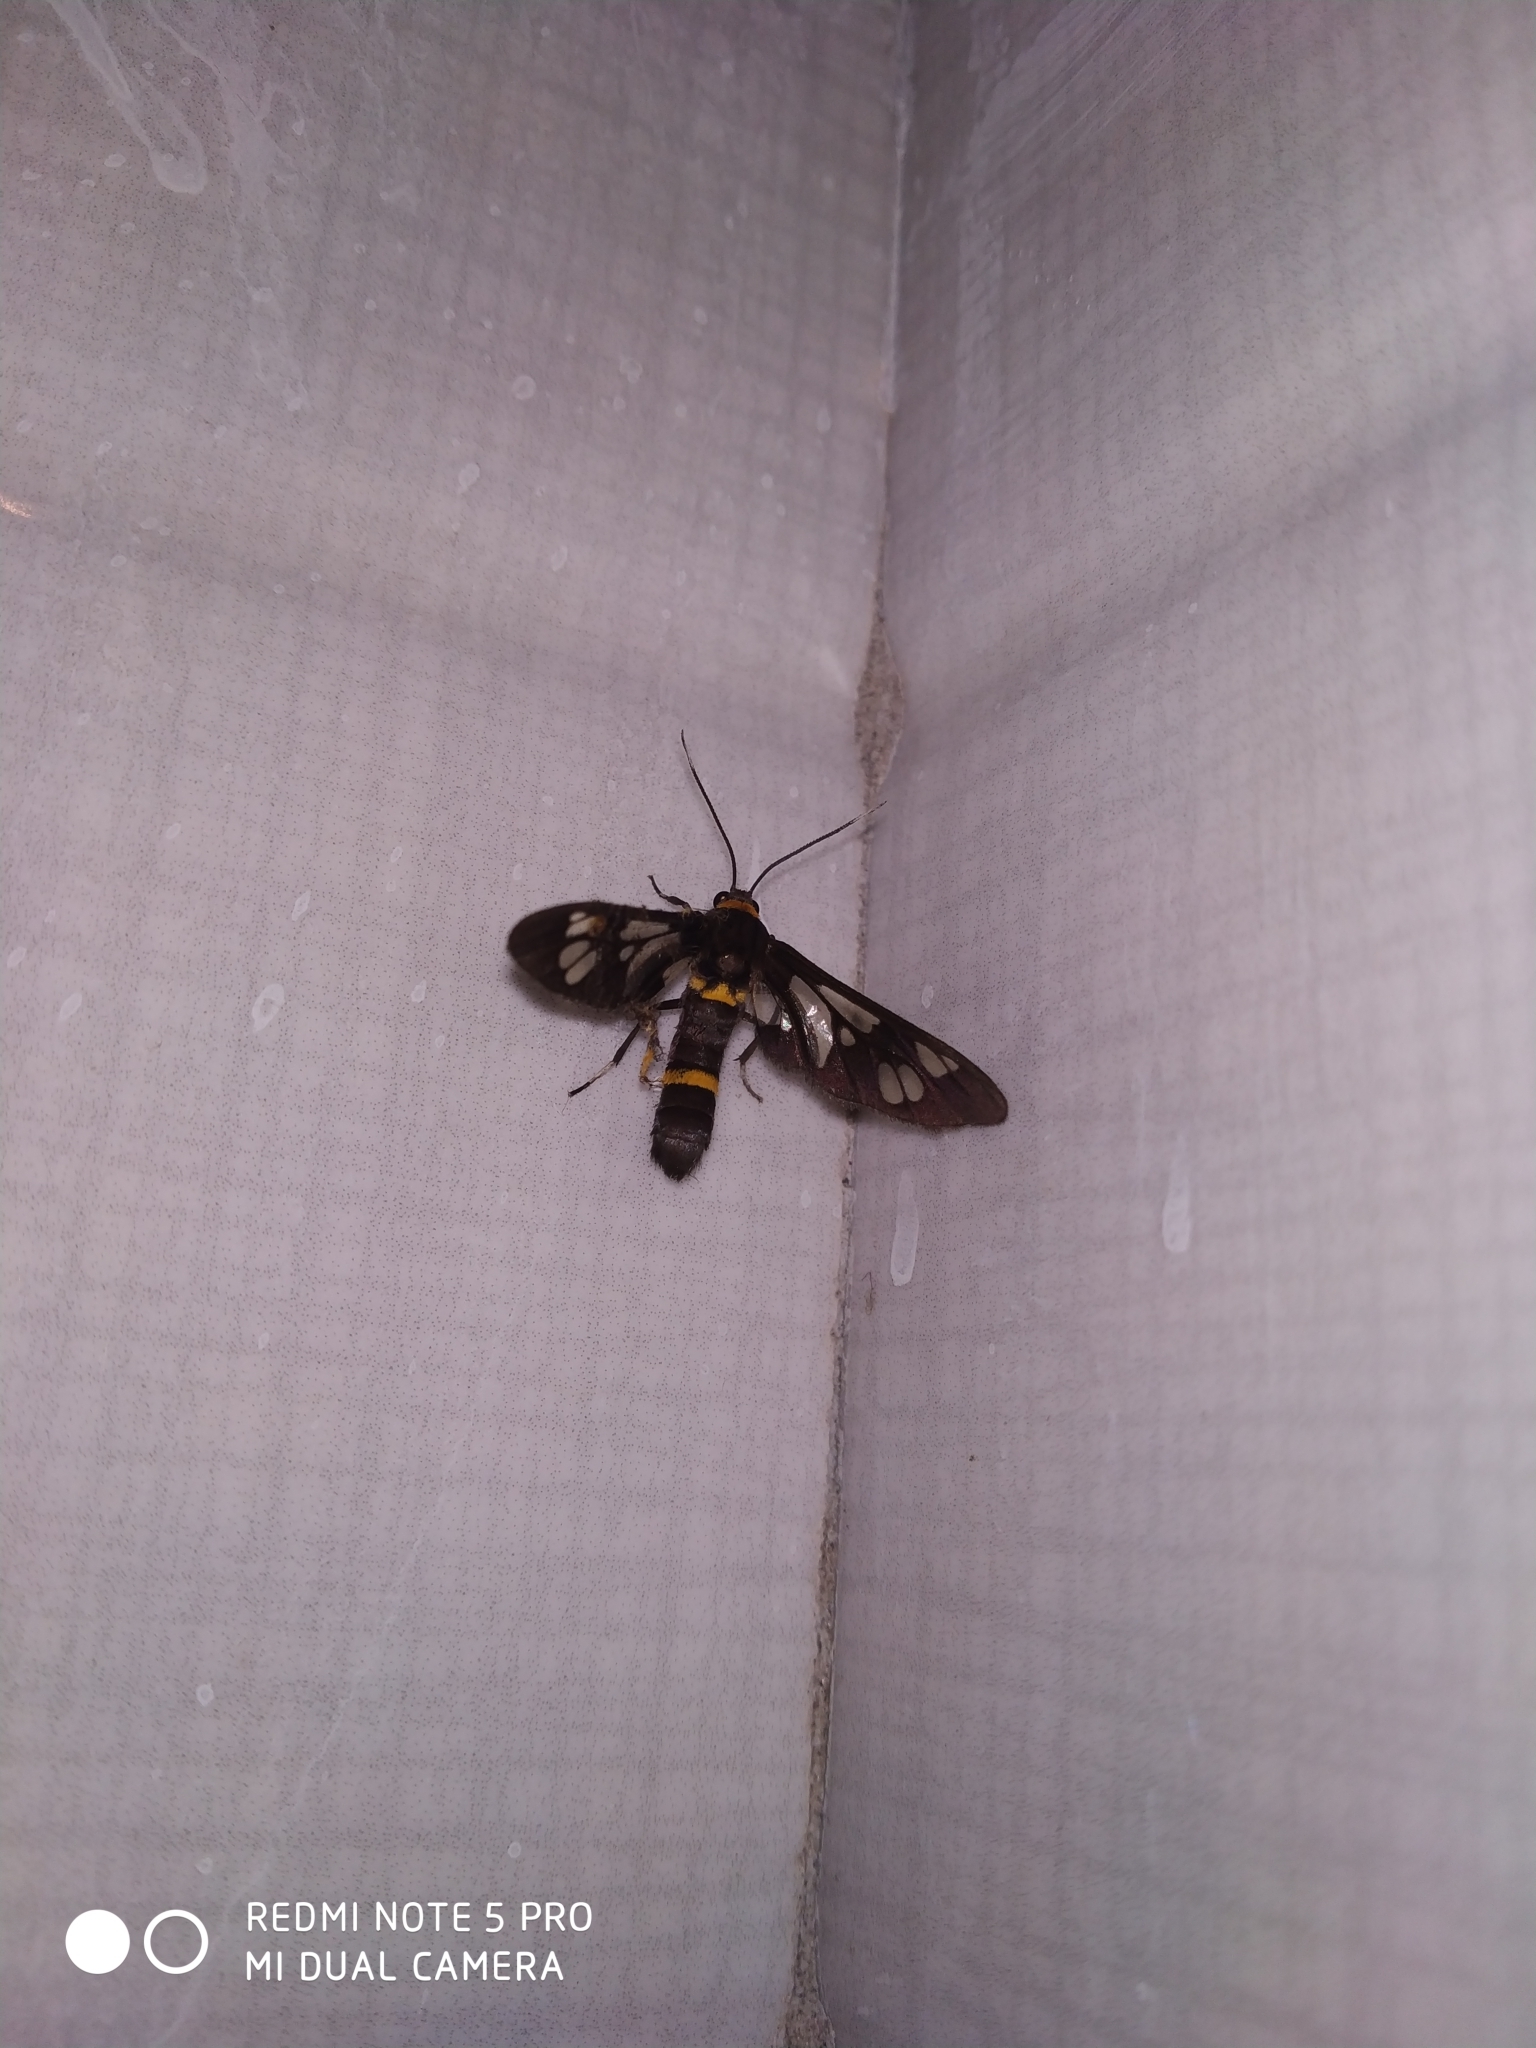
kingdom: Animalia
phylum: Arthropoda
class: Insecta
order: Lepidoptera
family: Erebidae
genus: Syntomoides
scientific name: Syntomoides imaon
